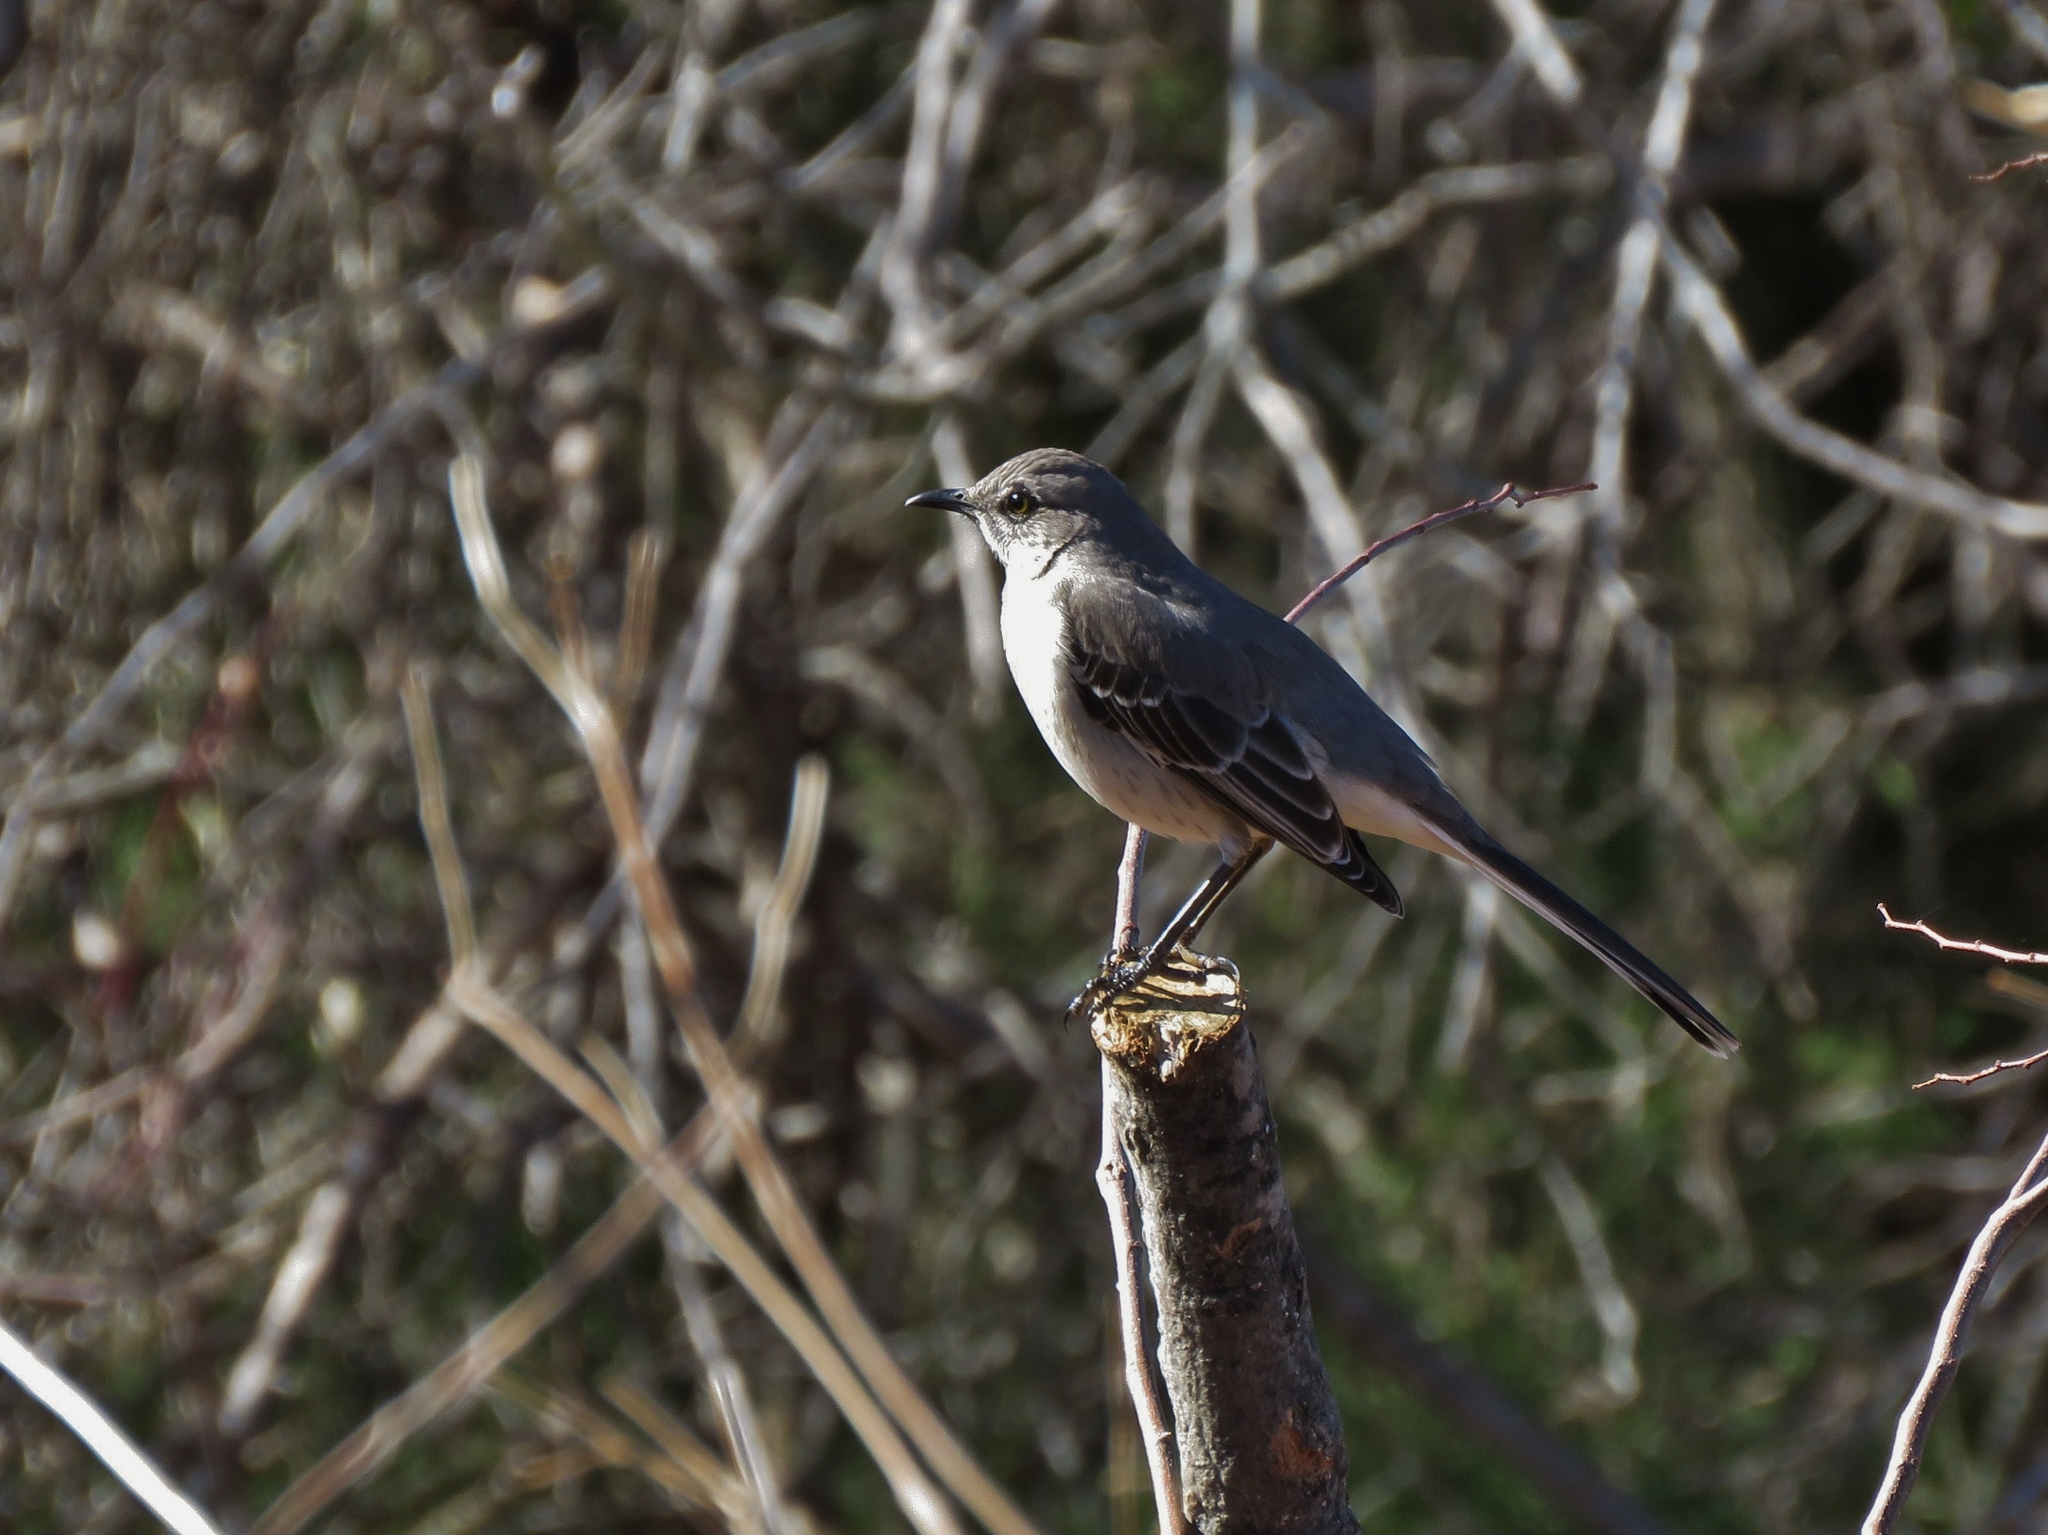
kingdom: Animalia
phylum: Chordata
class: Aves
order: Passeriformes
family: Mimidae
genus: Mimus
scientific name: Mimus polyglottos
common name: Northern mockingbird
